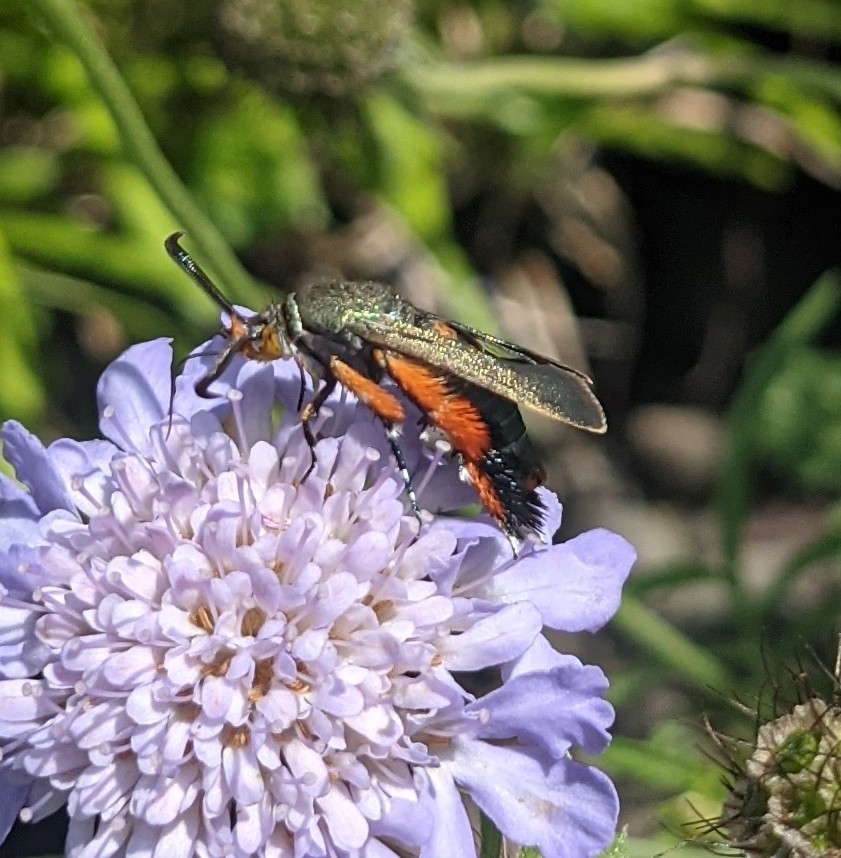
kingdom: Animalia
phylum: Arthropoda
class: Insecta
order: Lepidoptera
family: Sesiidae
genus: Eichlinia
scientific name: Eichlinia cucurbitae
